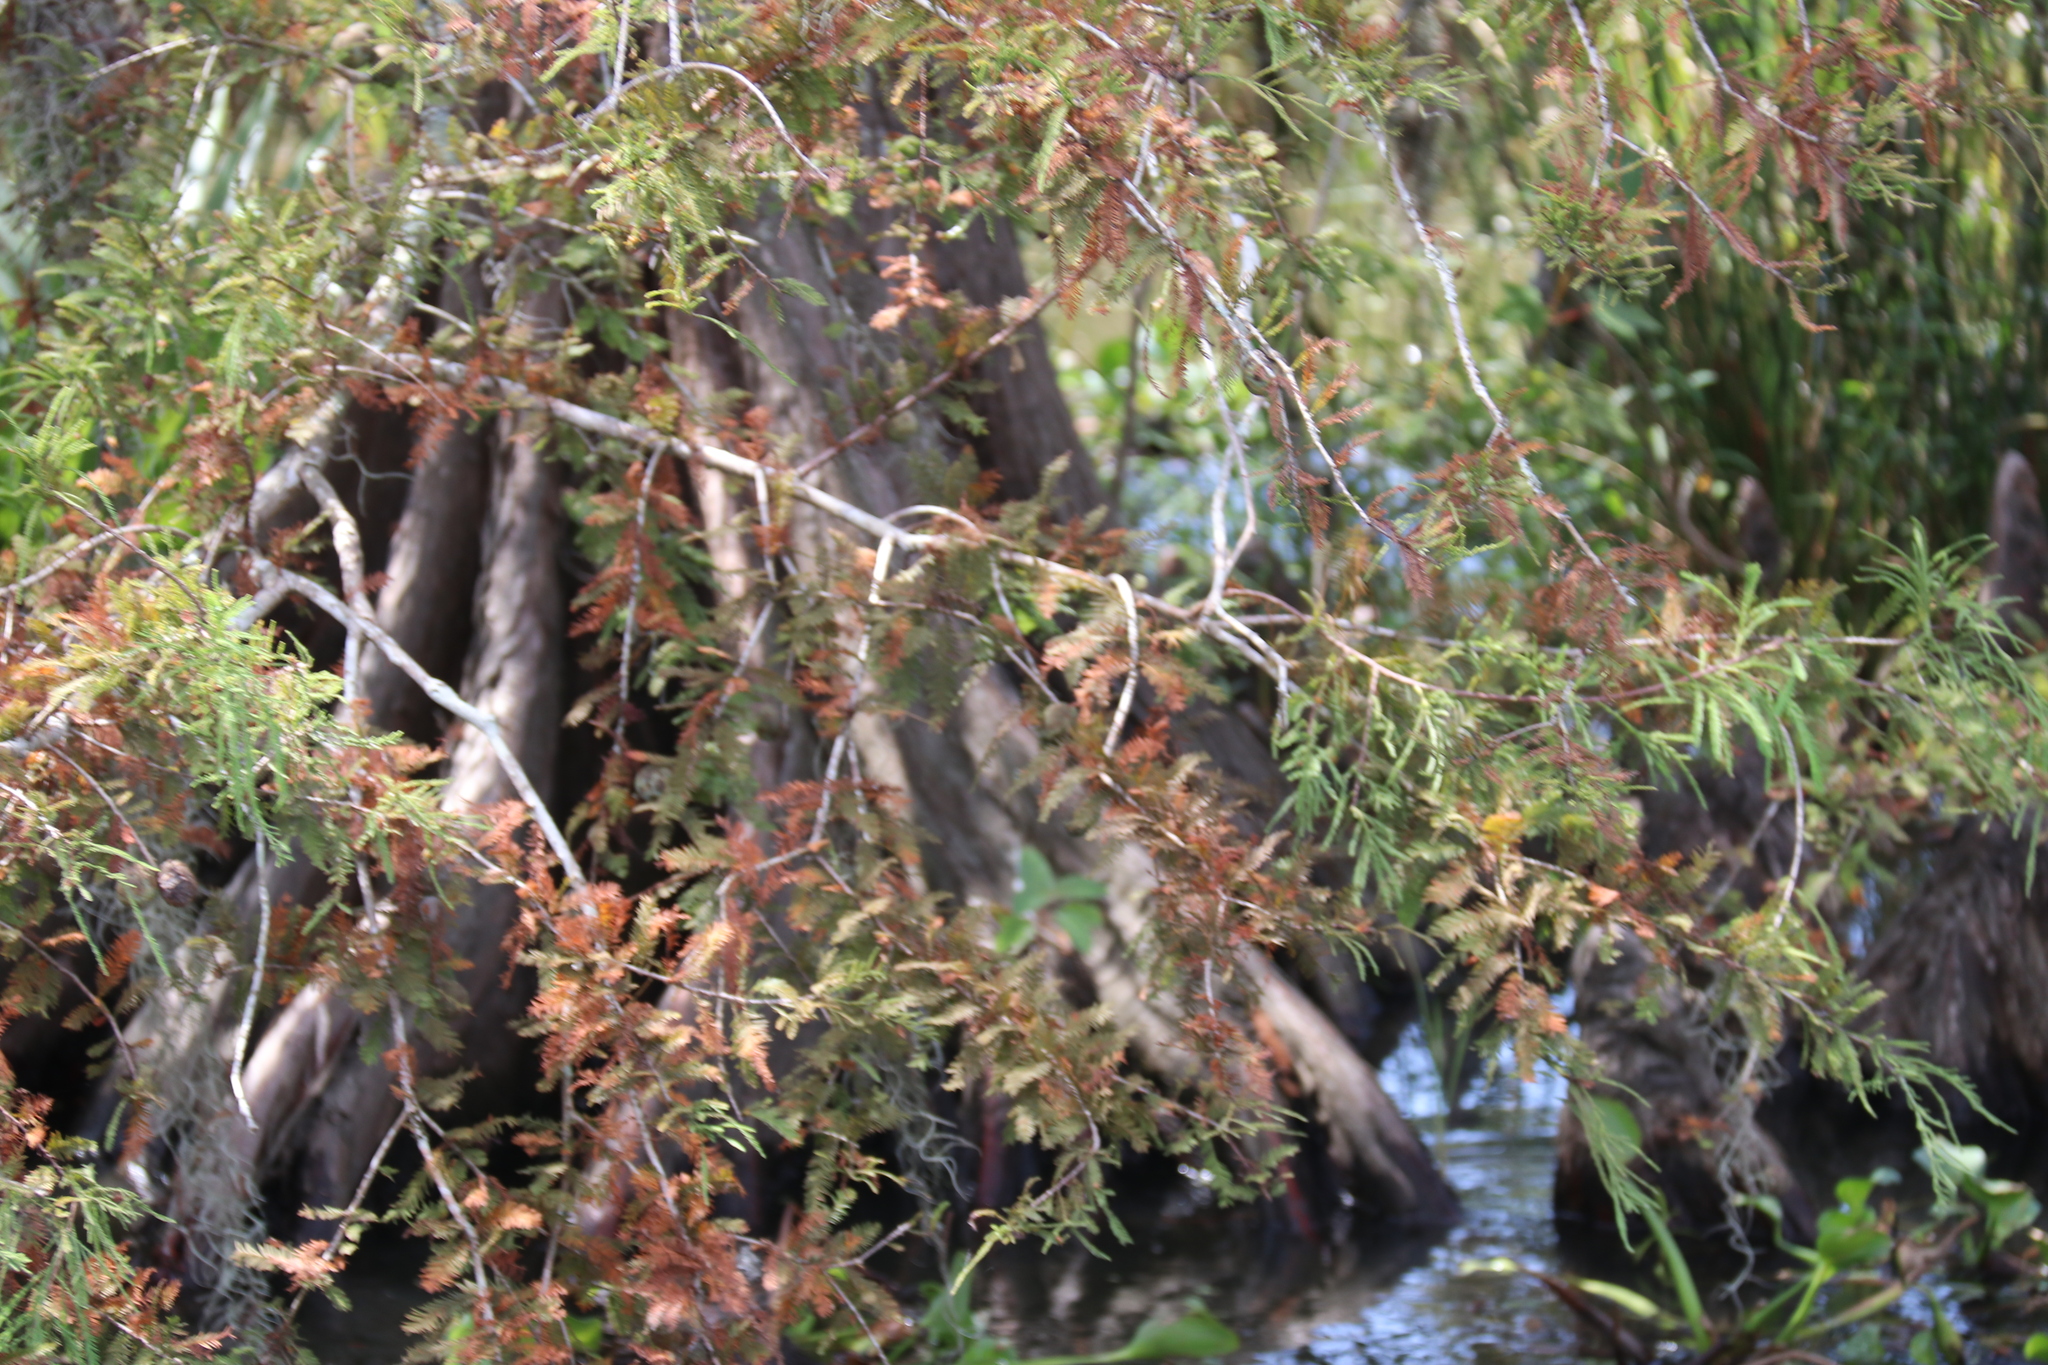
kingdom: Plantae
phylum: Tracheophyta
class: Pinopsida
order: Pinales
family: Cupressaceae
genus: Taxodium
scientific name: Taxodium distichum
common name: Bald cypress
